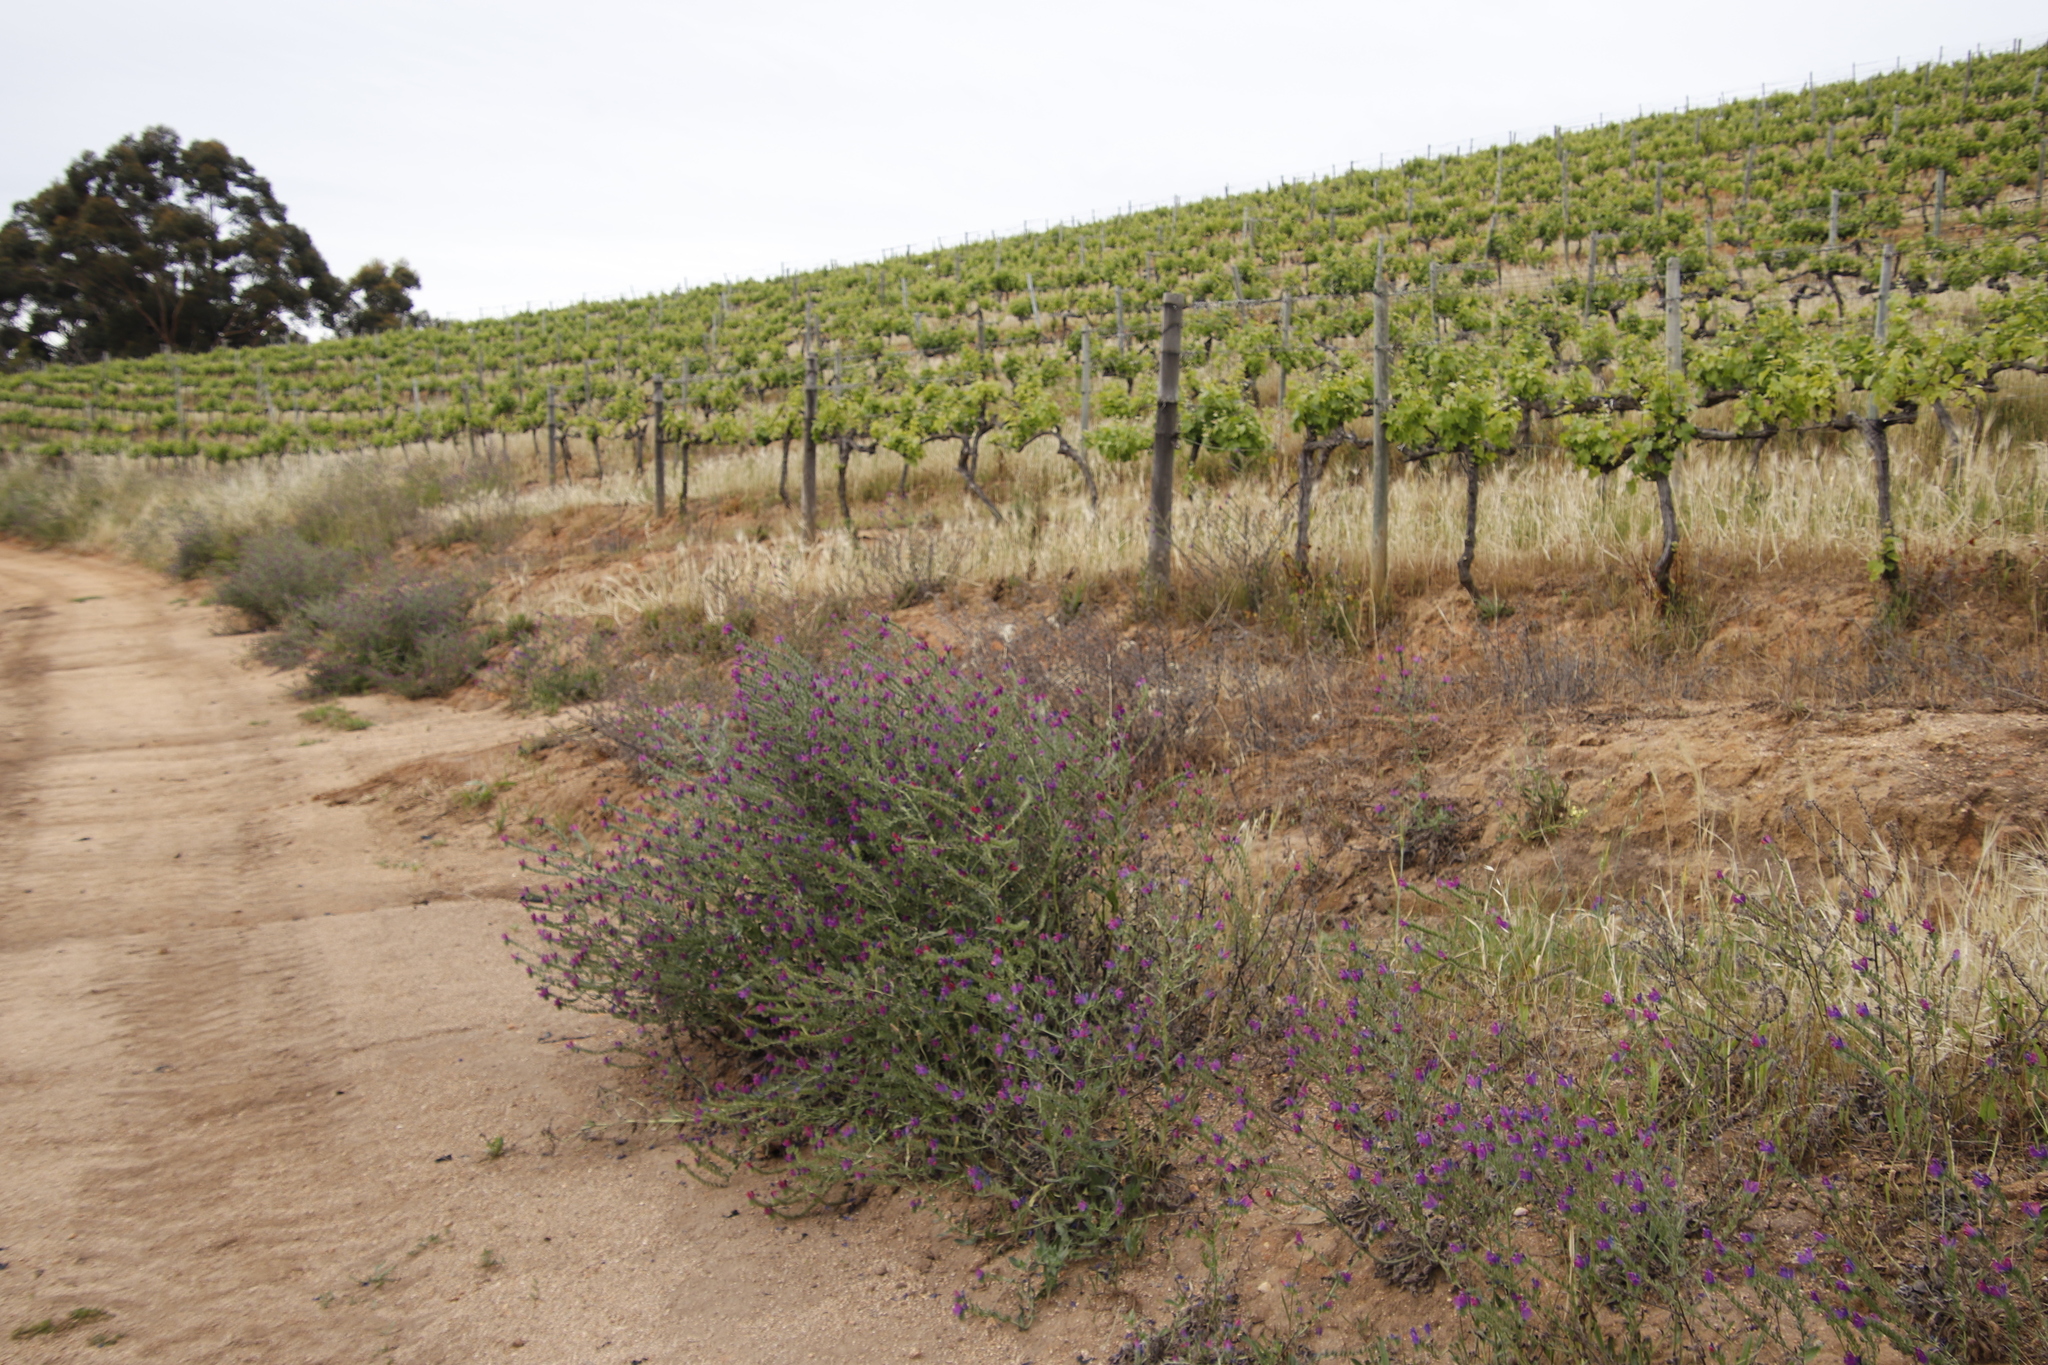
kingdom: Plantae
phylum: Tracheophyta
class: Magnoliopsida
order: Boraginales
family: Boraginaceae
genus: Echium
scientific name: Echium plantagineum
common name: Purple viper's-bugloss
